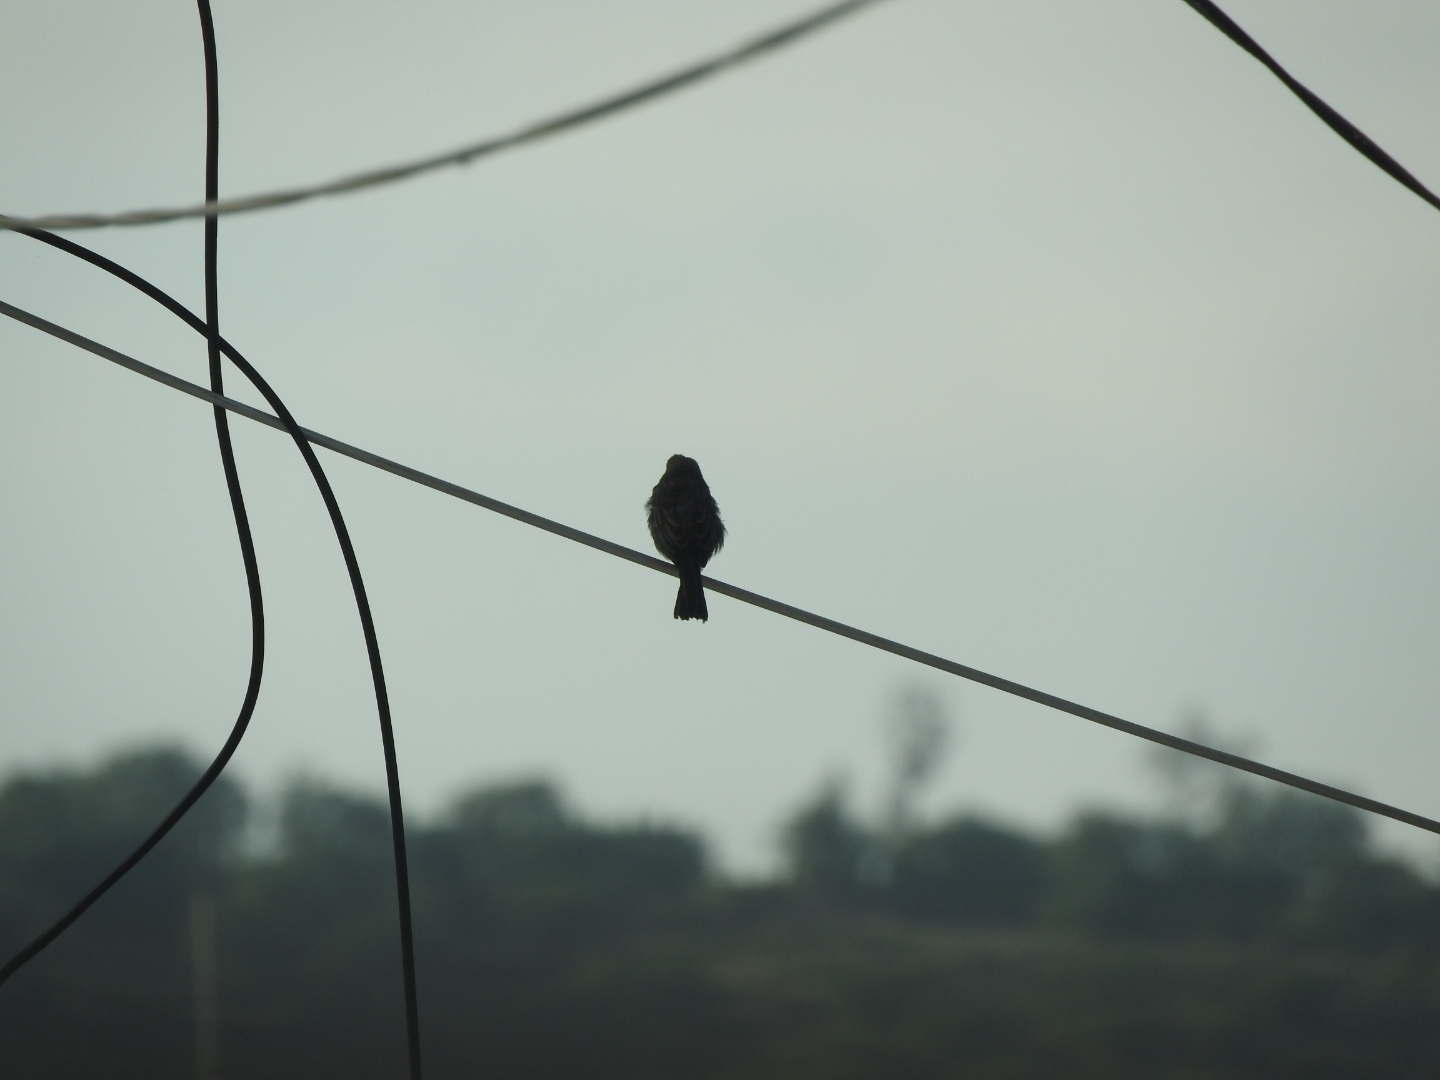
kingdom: Animalia
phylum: Chordata
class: Aves
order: Passeriformes
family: Fringillidae
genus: Haemorhous
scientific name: Haemorhous mexicanus
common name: House finch
